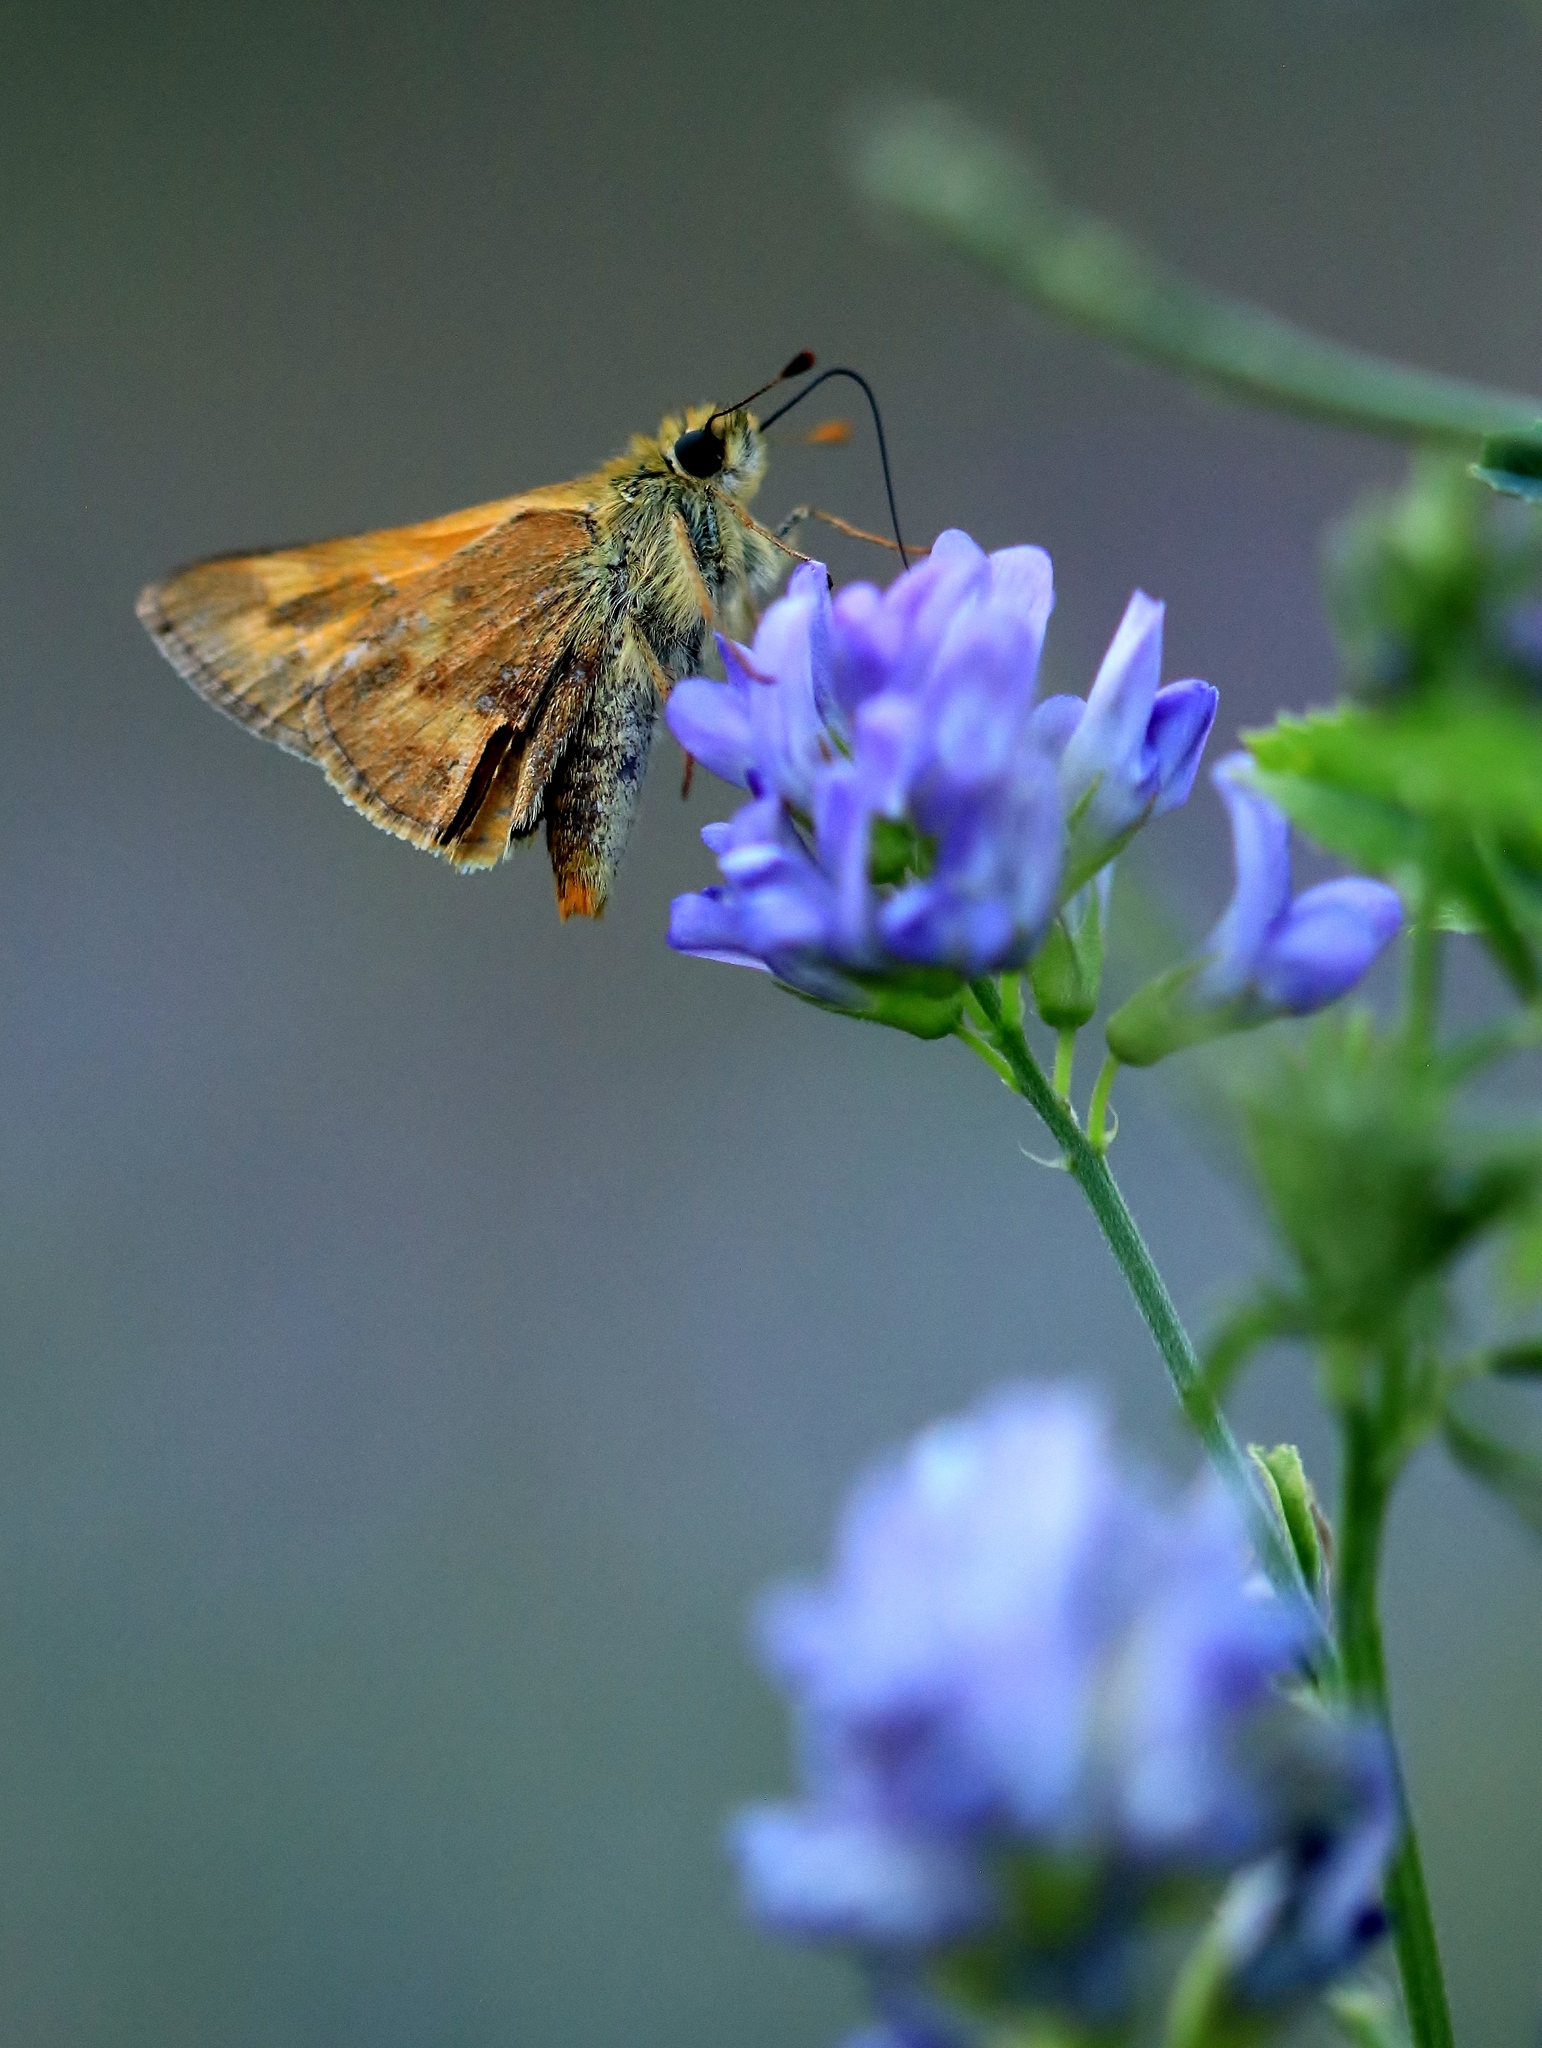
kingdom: Animalia
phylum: Arthropoda
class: Insecta
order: Lepidoptera
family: Hesperiidae
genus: Ochlodes
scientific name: Ochlodes sylvanoides
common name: Woodland skipper
